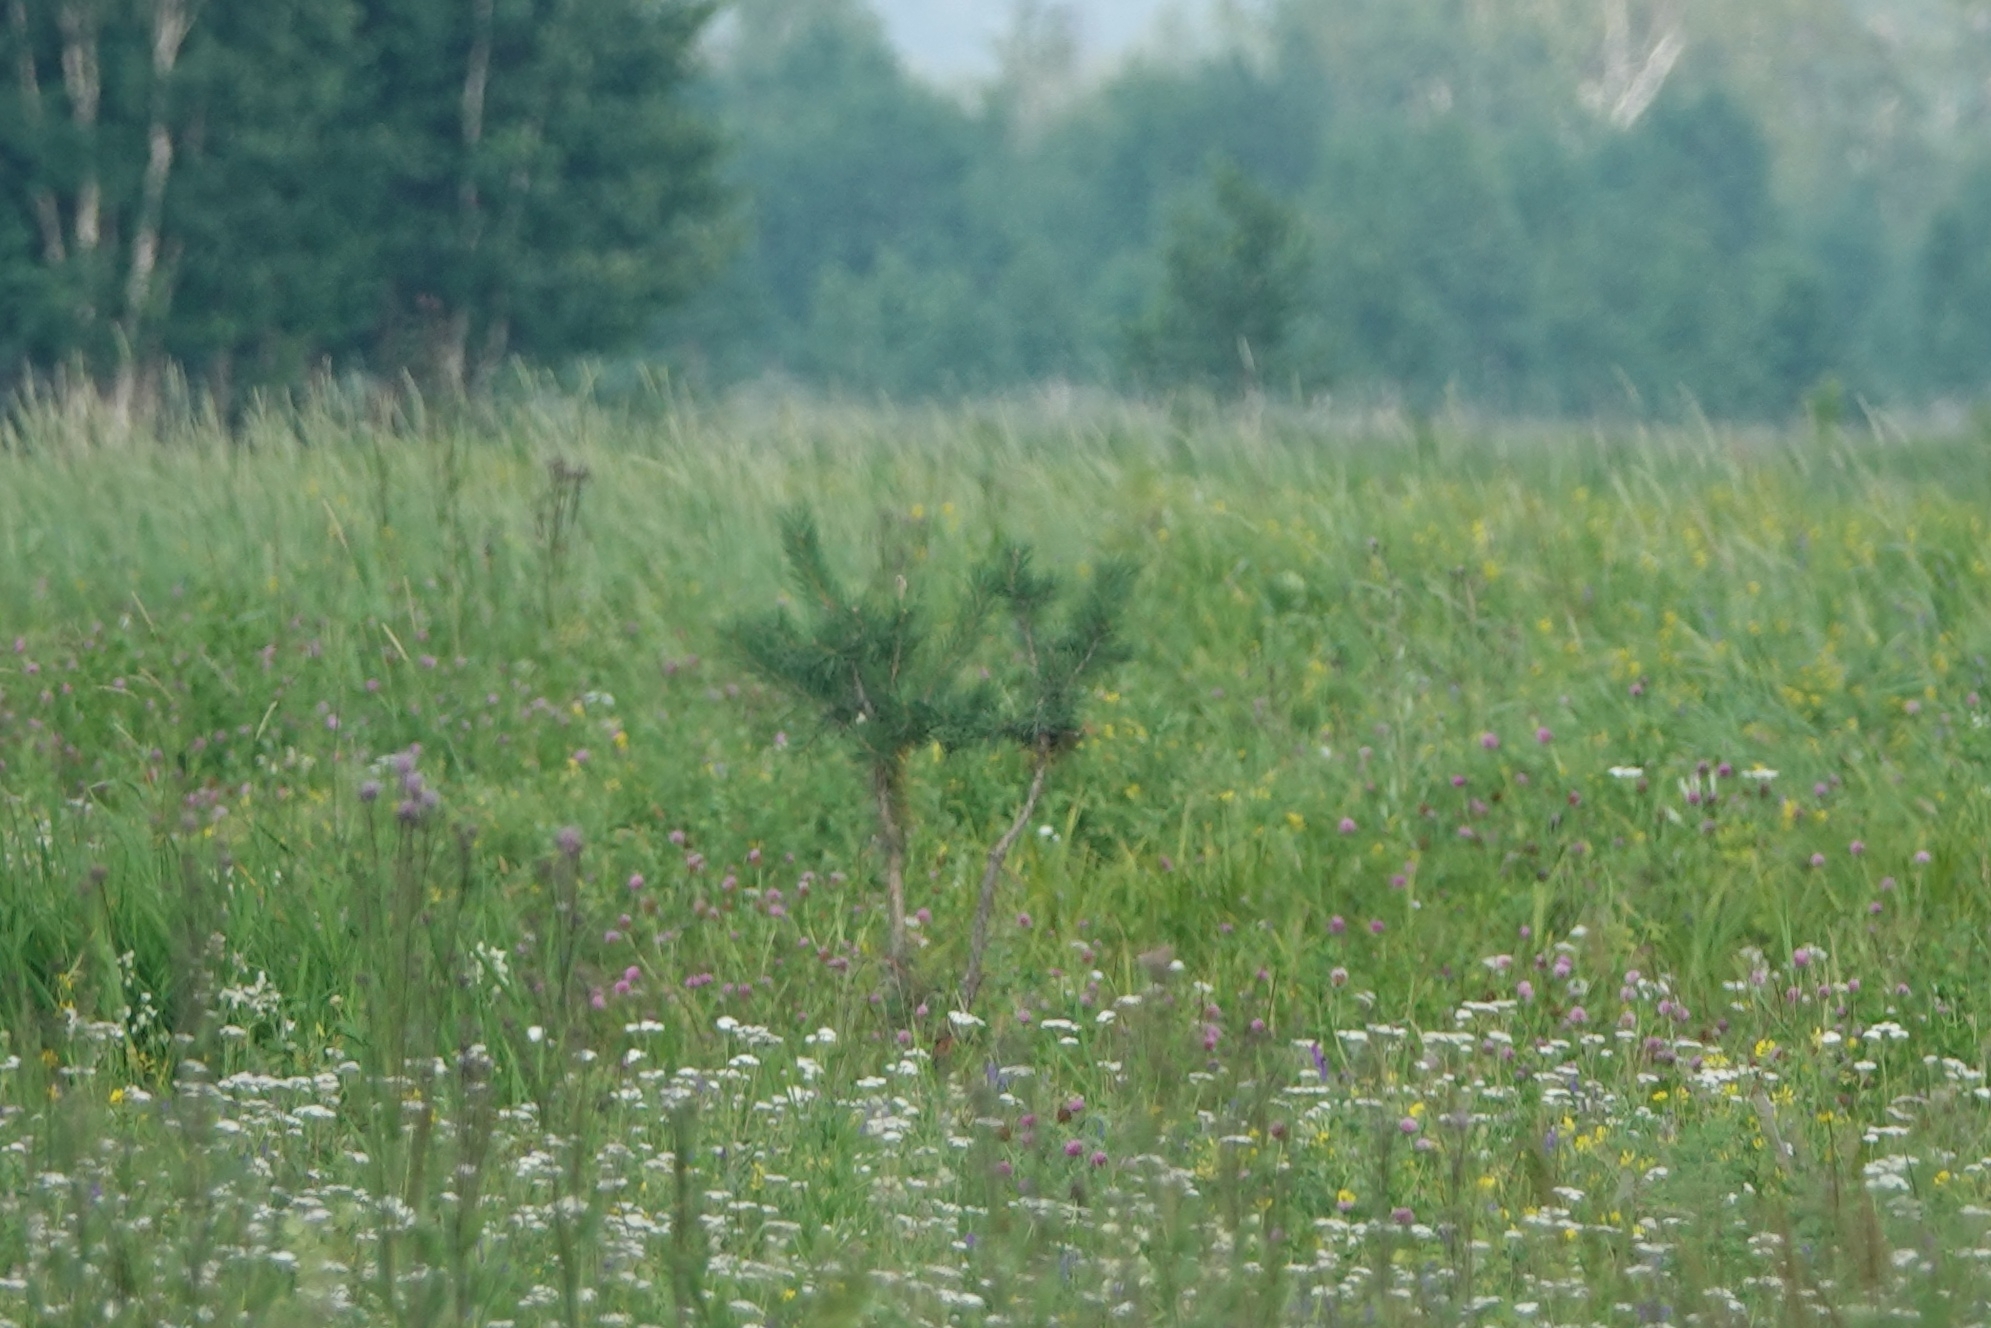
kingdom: Plantae
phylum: Tracheophyta
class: Pinopsida
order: Pinales
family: Pinaceae
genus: Pinus
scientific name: Pinus sylvestris
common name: Scots pine
